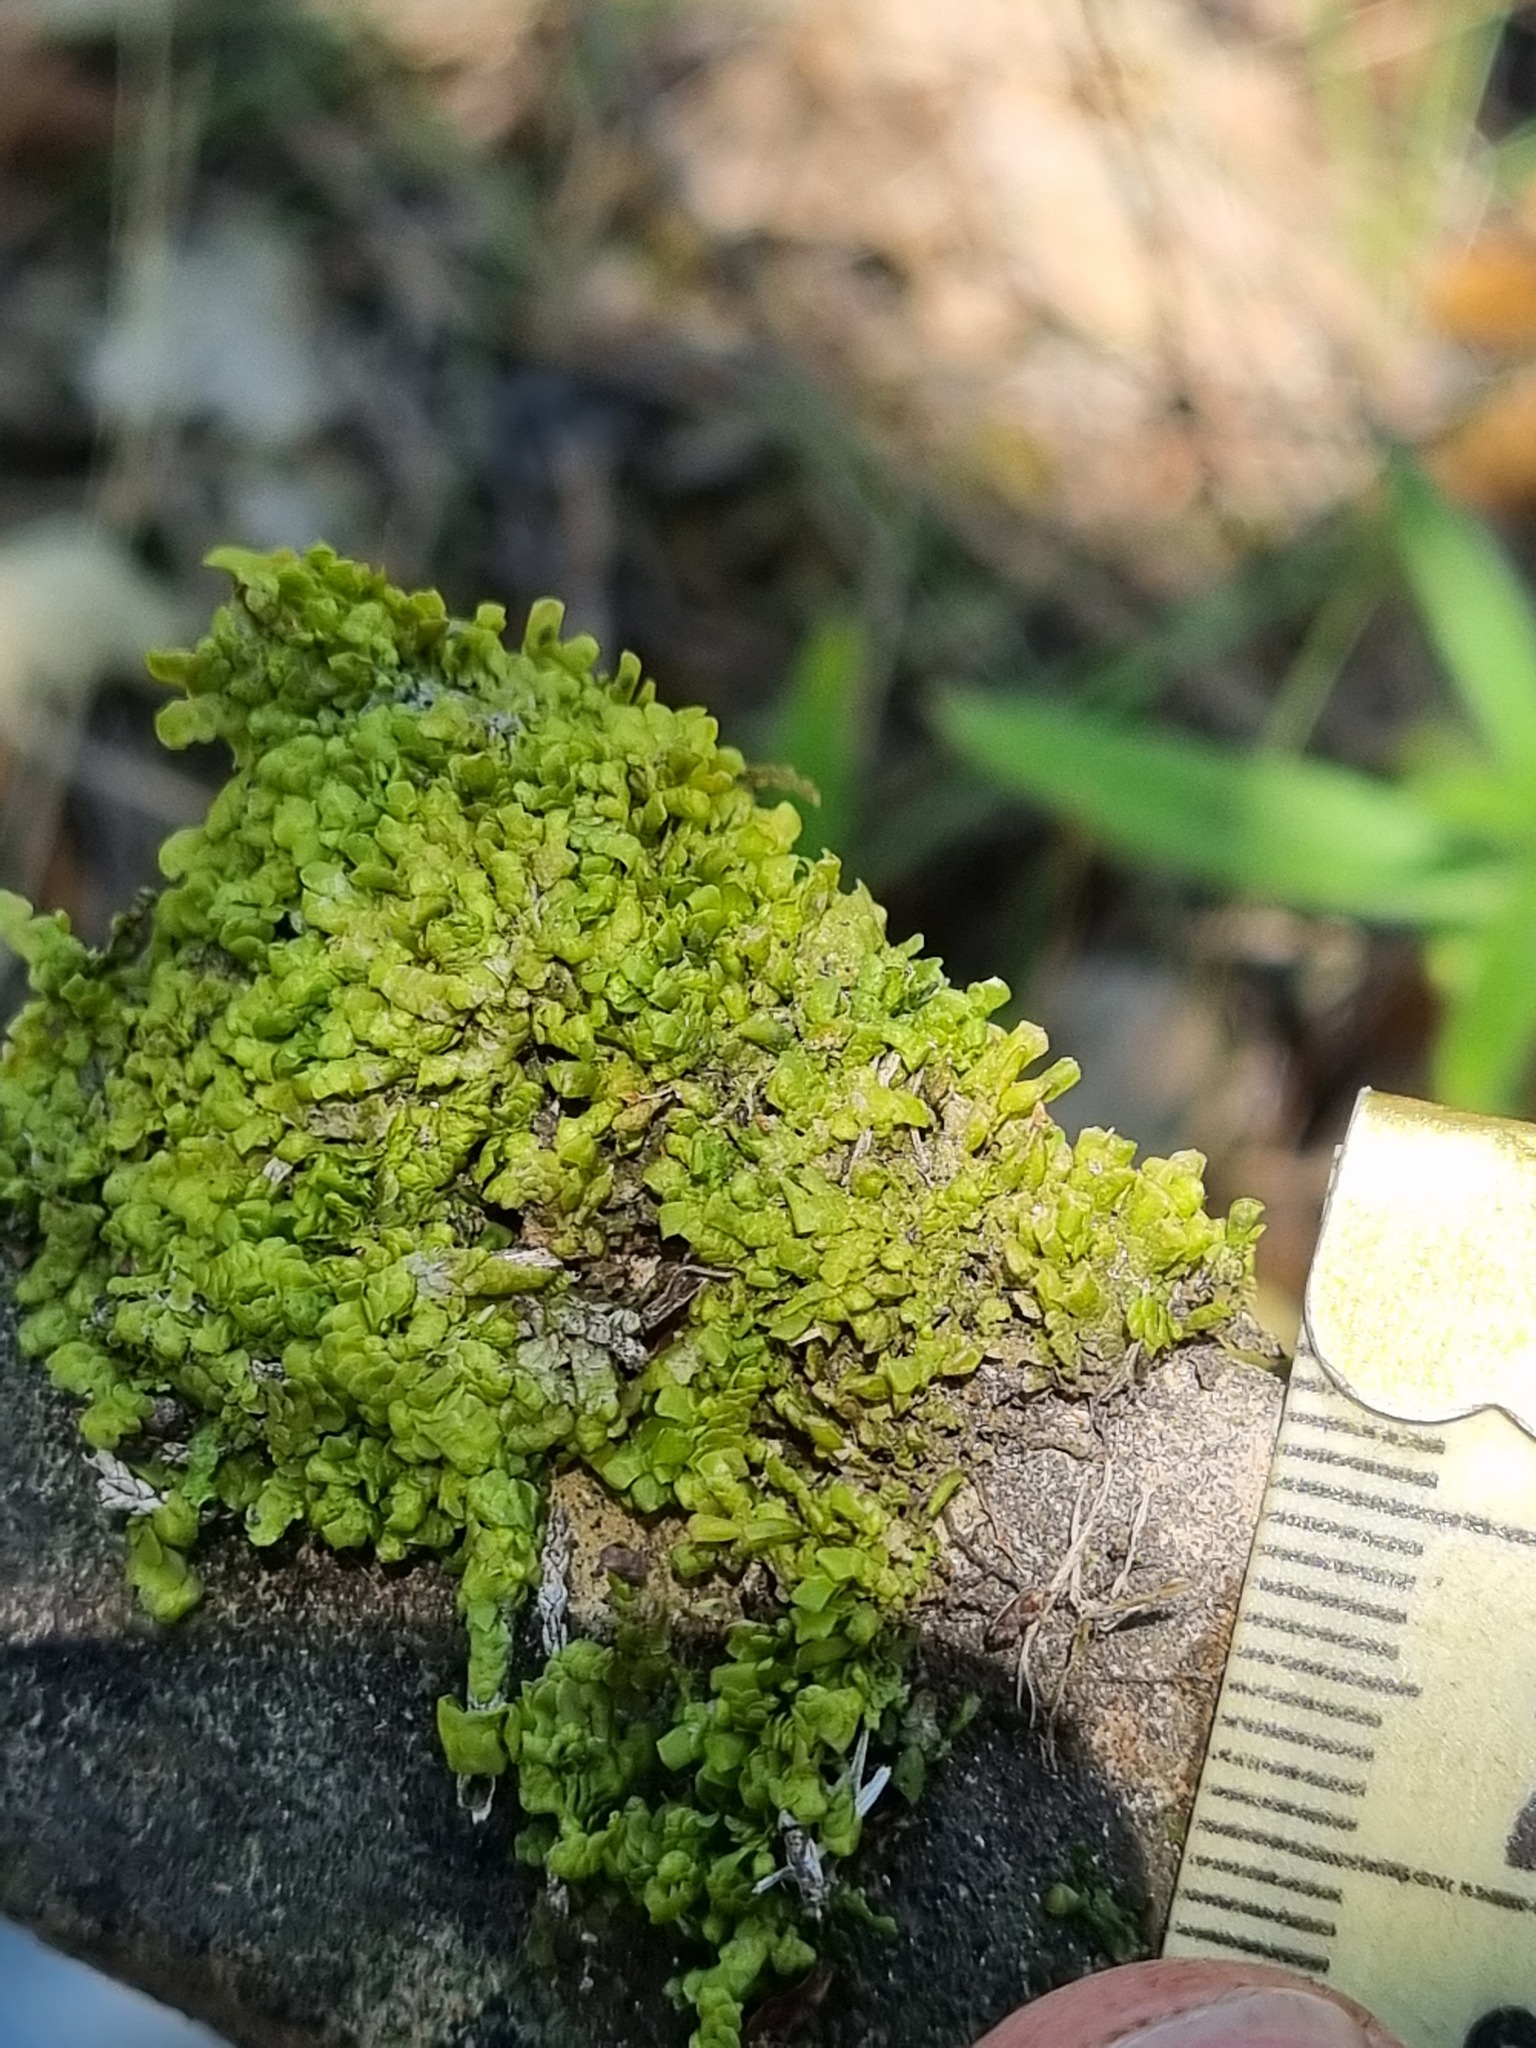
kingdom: Plantae
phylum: Marchantiophyta
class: Jungermanniopsida
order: Porellales
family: Radulaceae
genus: Radula
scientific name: Radula complanata
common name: Flat-leaved scalewort
